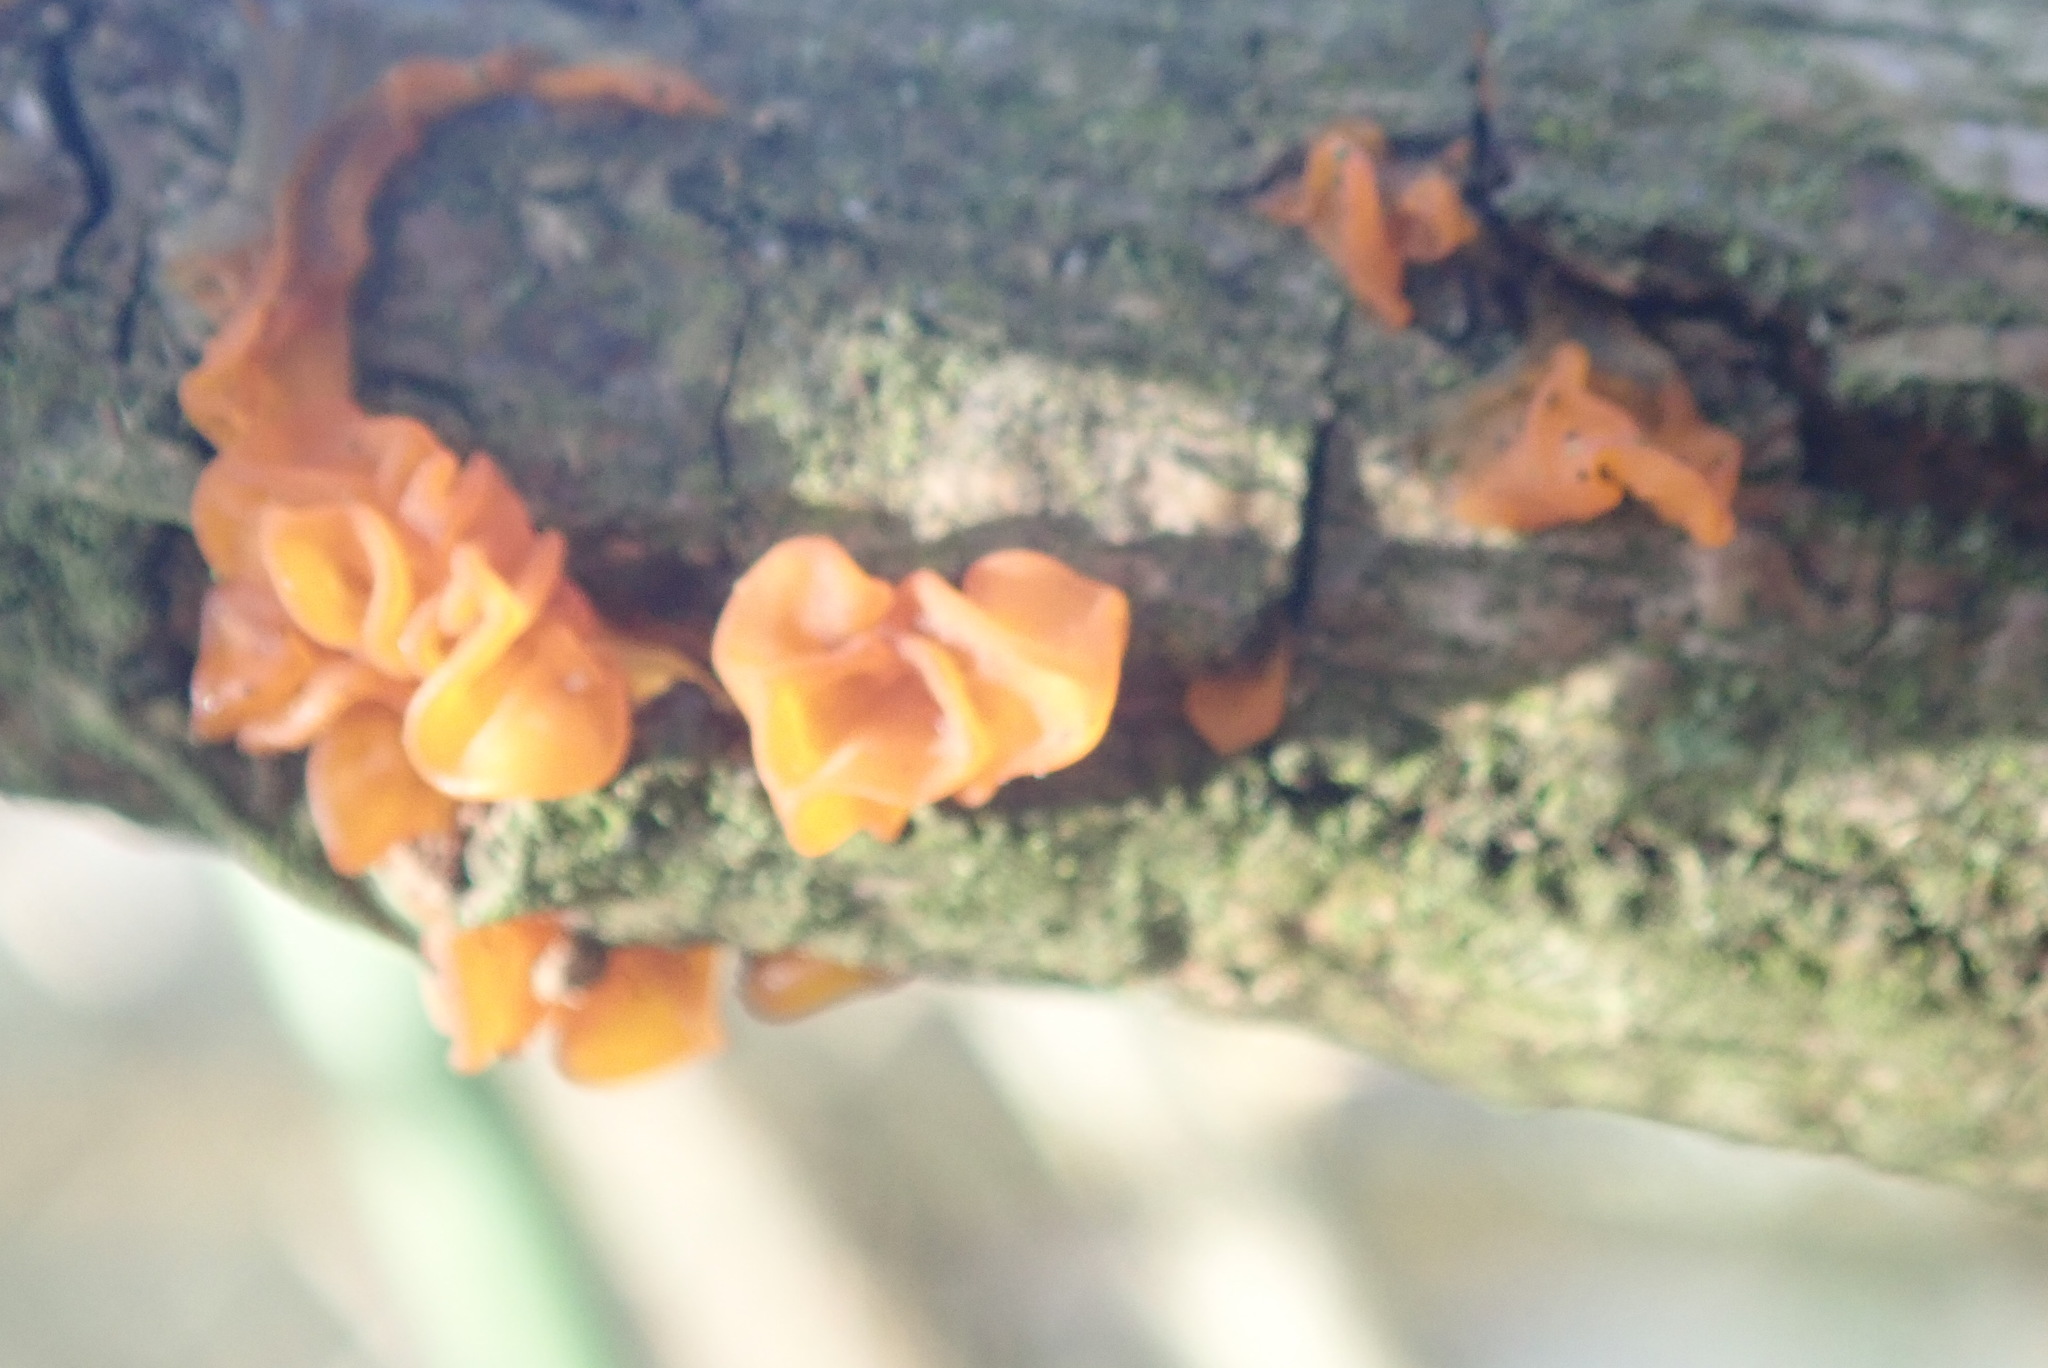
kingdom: Fungi
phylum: Basidiomycota
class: Tremellomycetes
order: Tremellales
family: Tremellaceae
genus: Tremella
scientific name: Tremella mesenterica
